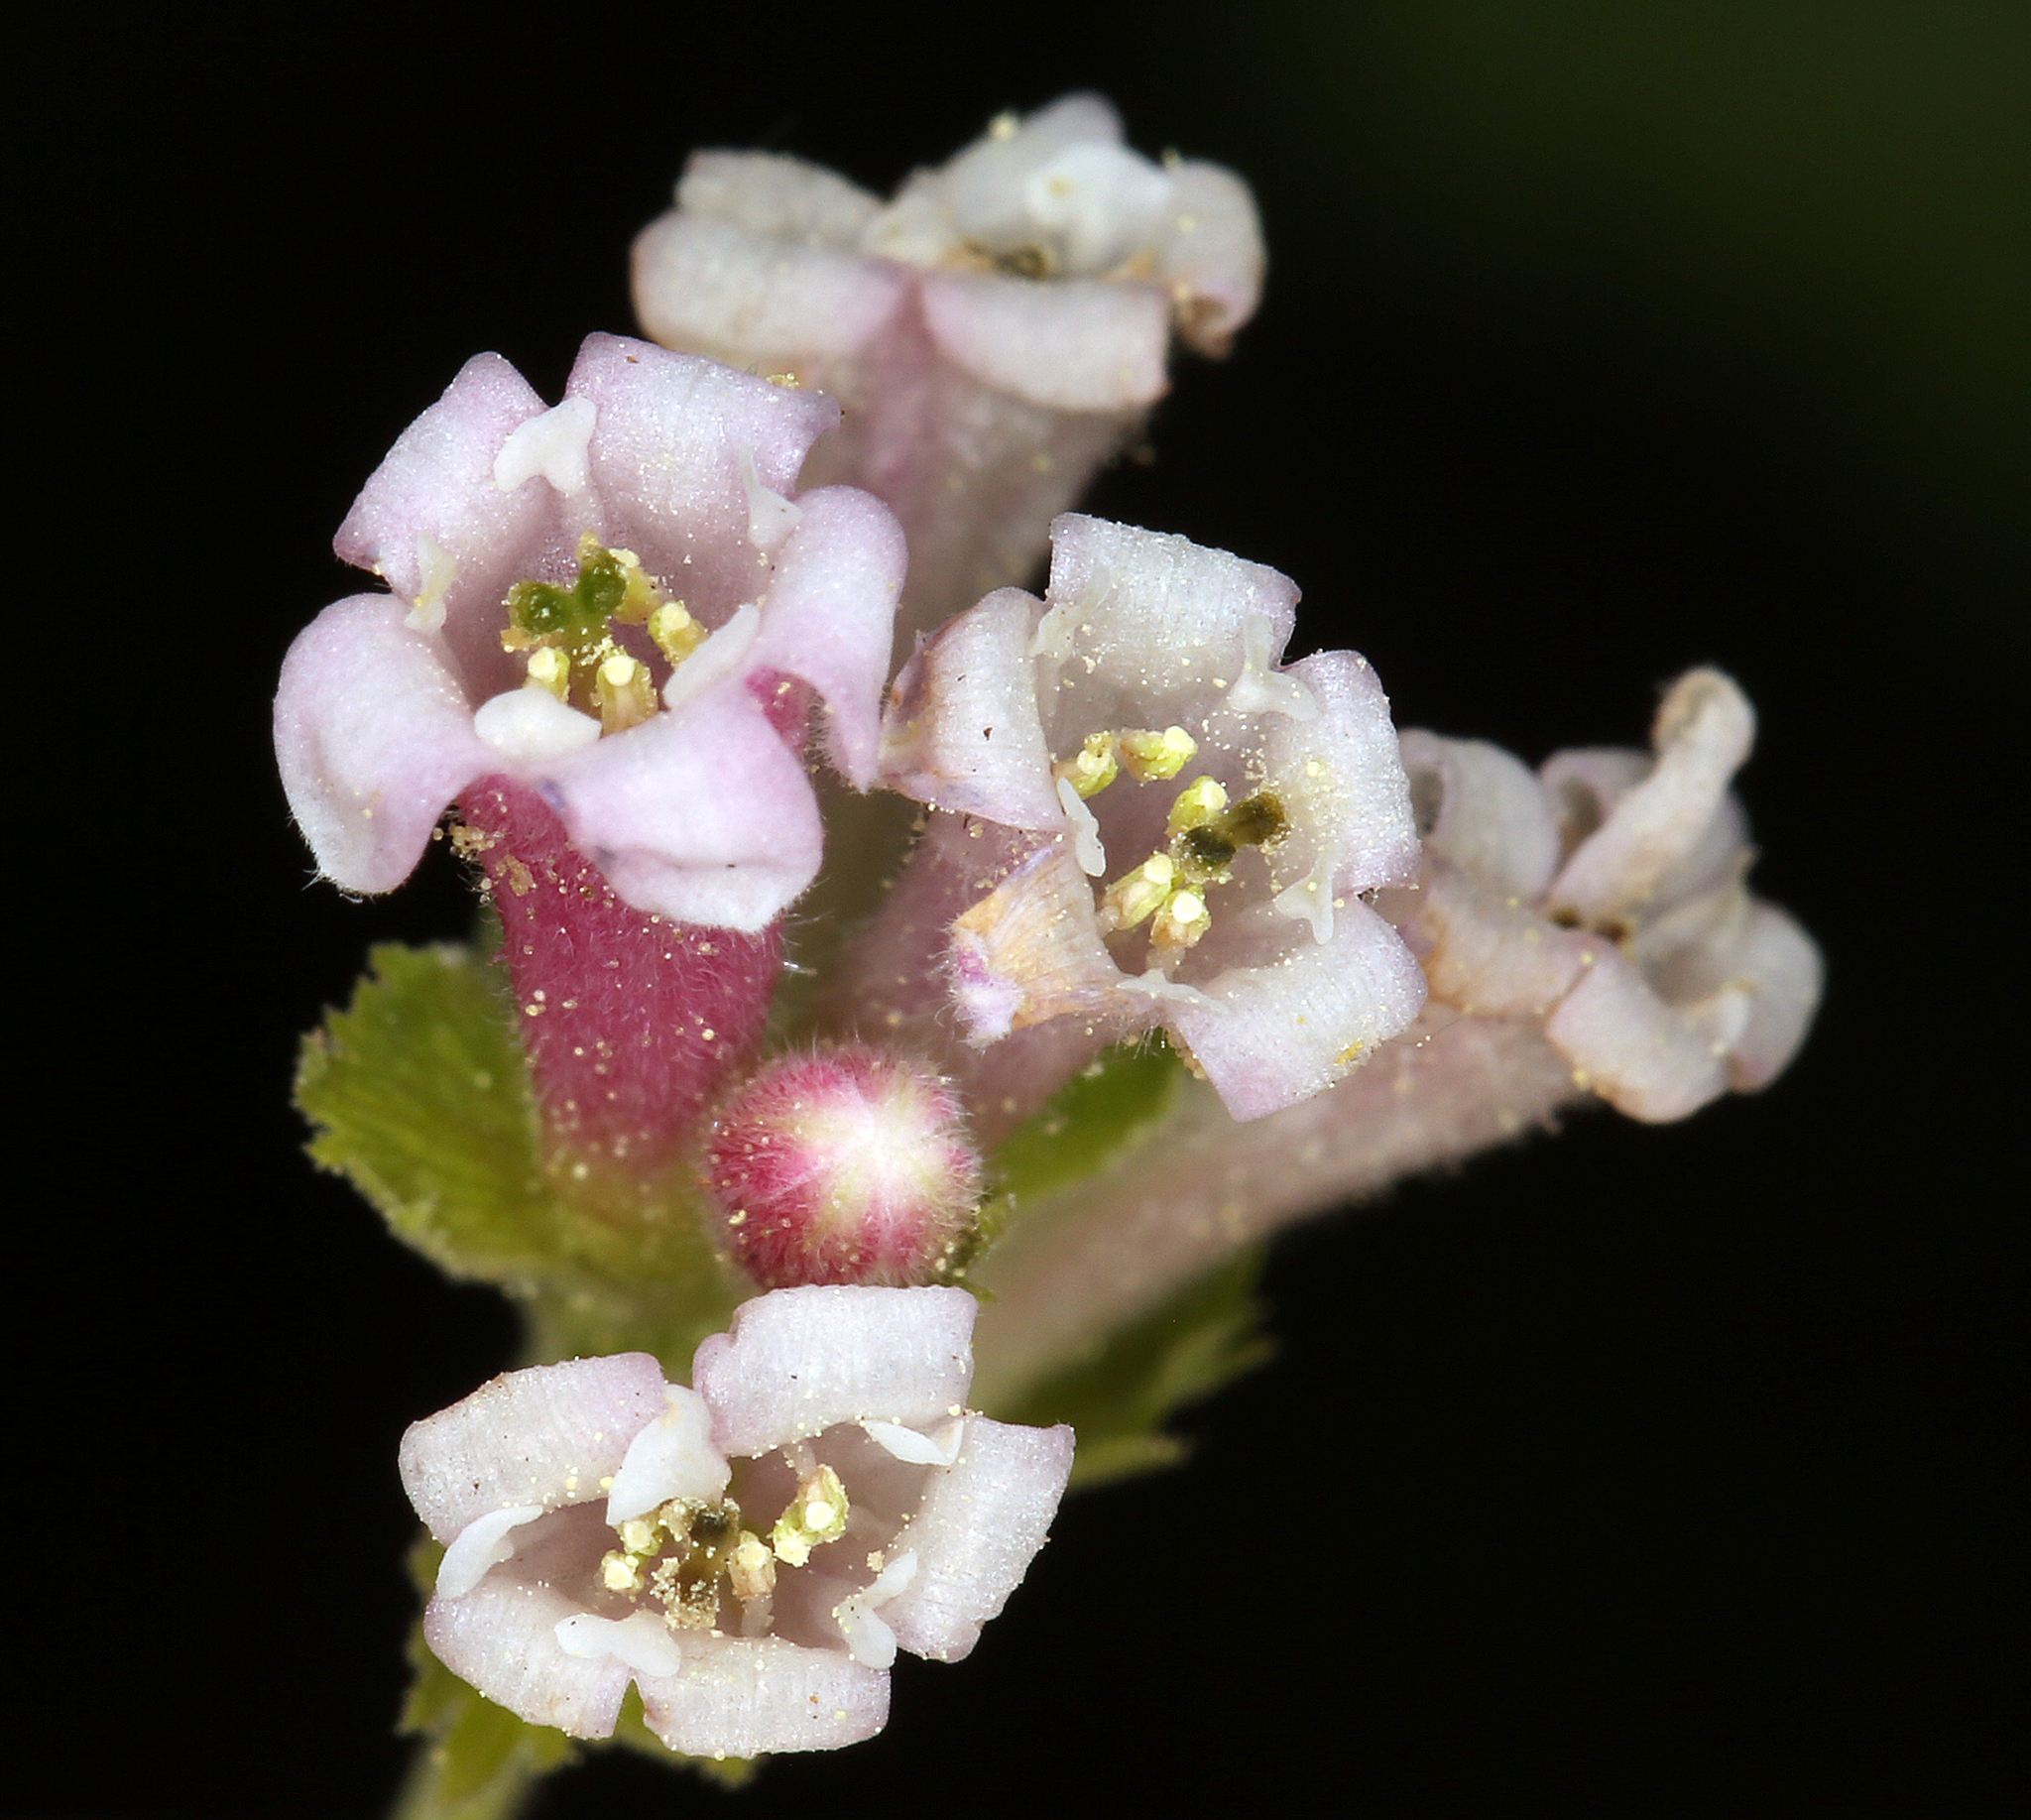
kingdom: Plantae
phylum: Tracheophyta
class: Magnoliopsida
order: Saxifragales
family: Grossulariaceae
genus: Ribes
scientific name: Ribes cereum
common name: Wax currant
